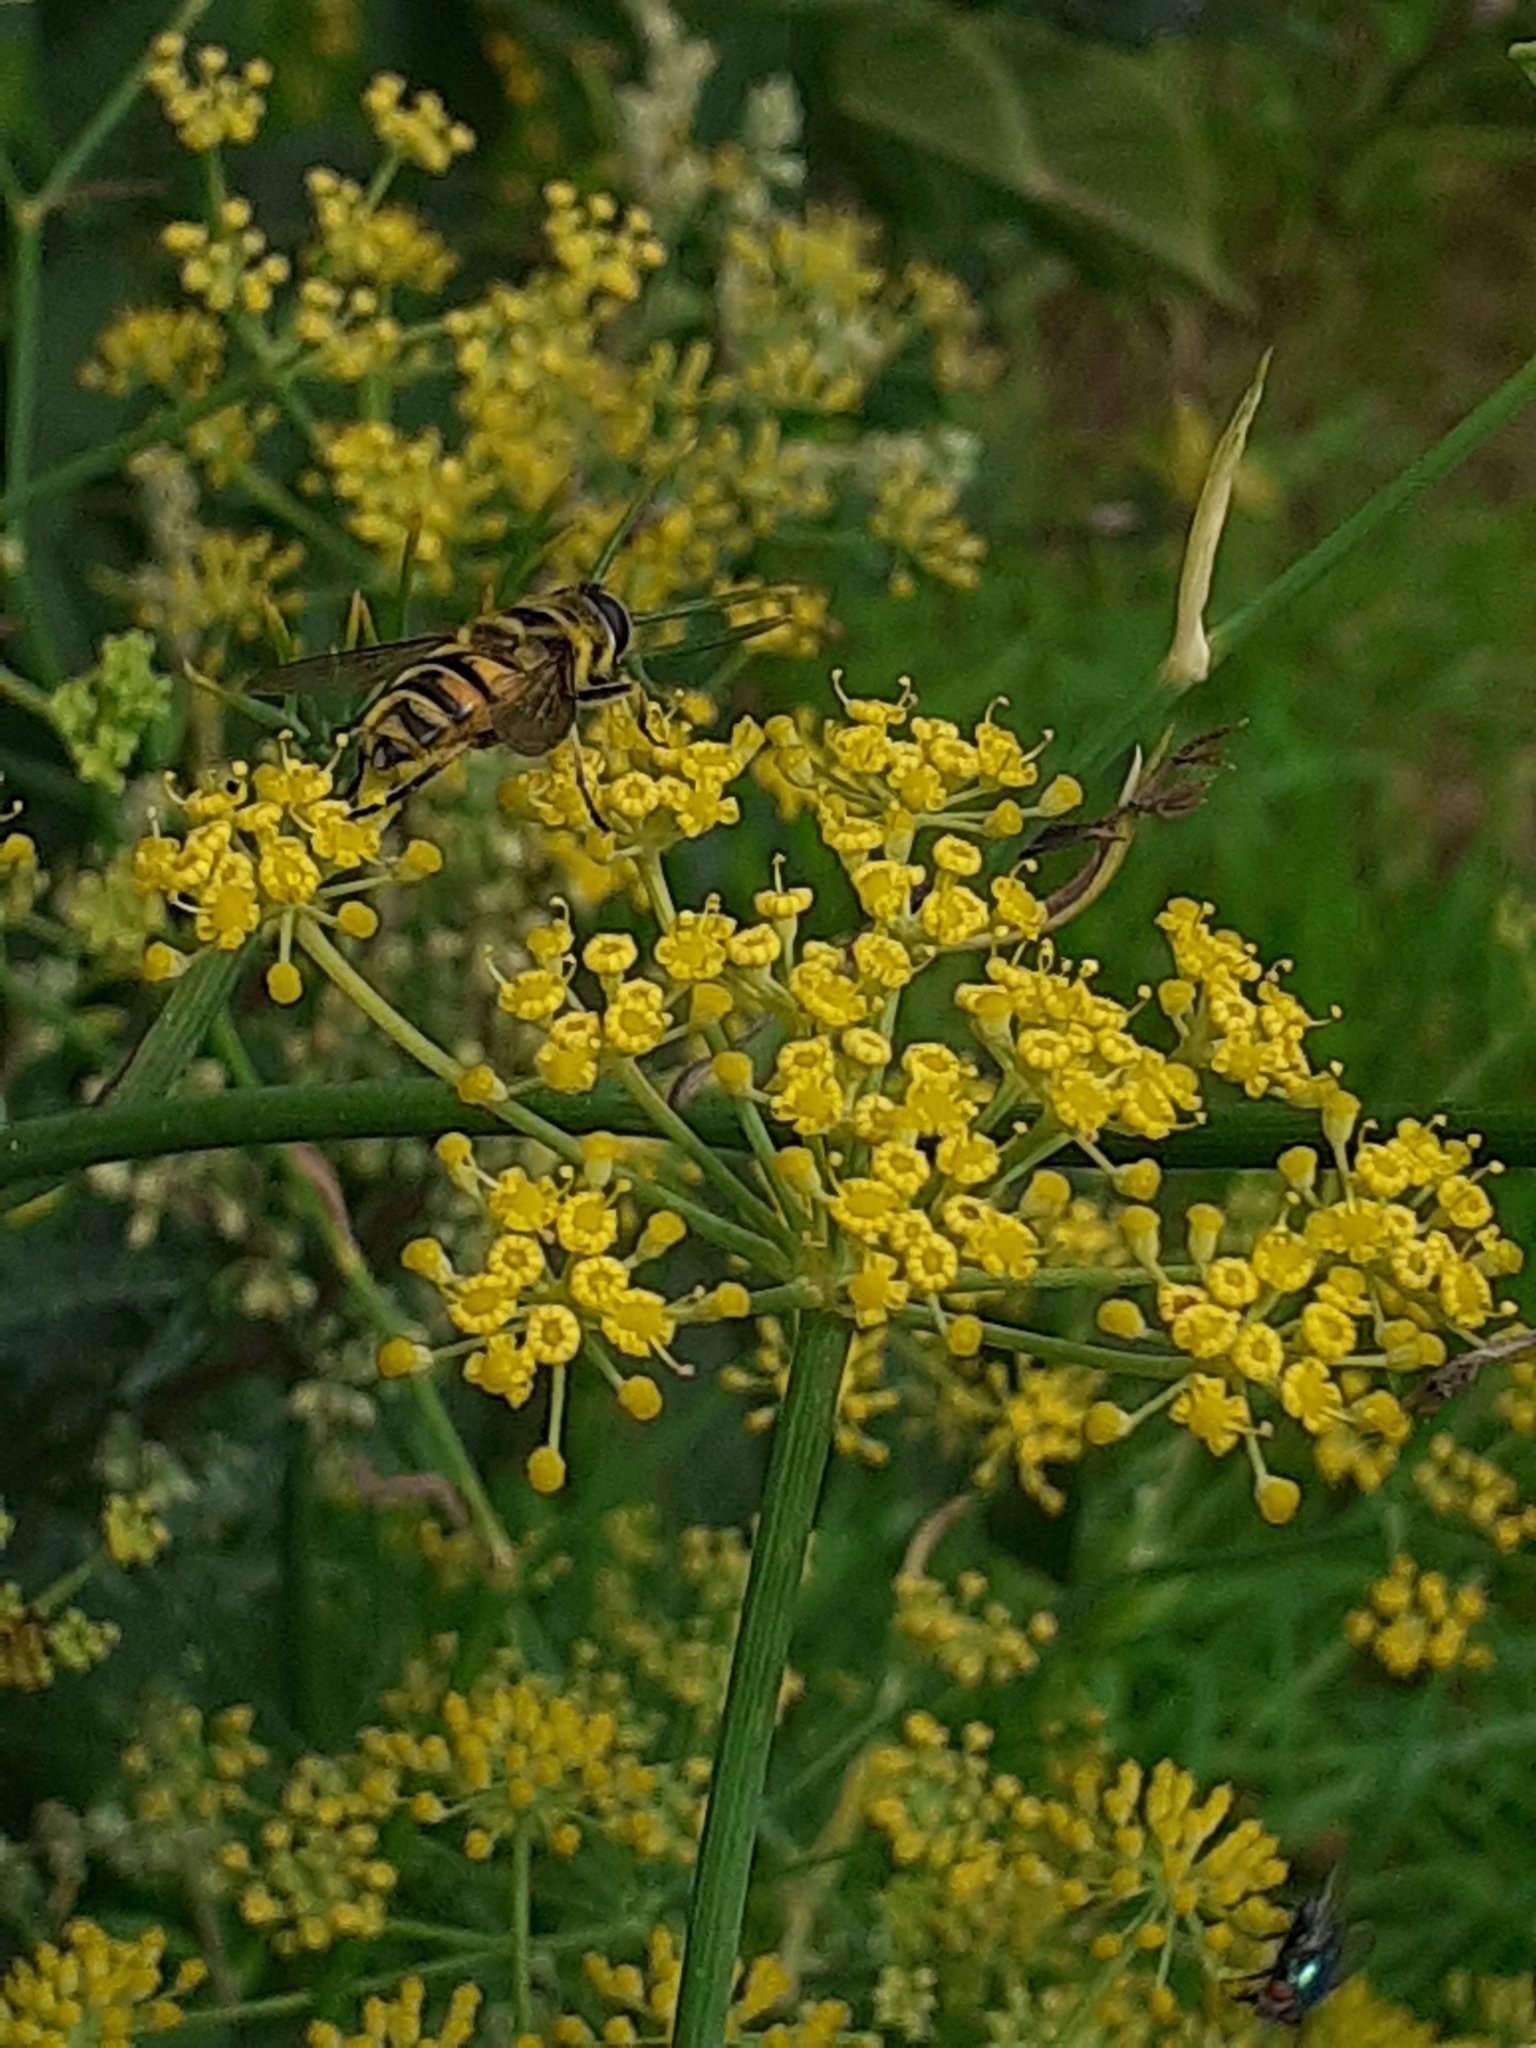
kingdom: Animalia
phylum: Arthropoda
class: Insecta
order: Diptera
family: Syrphidae
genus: Myathropa
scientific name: Myathropa florea
